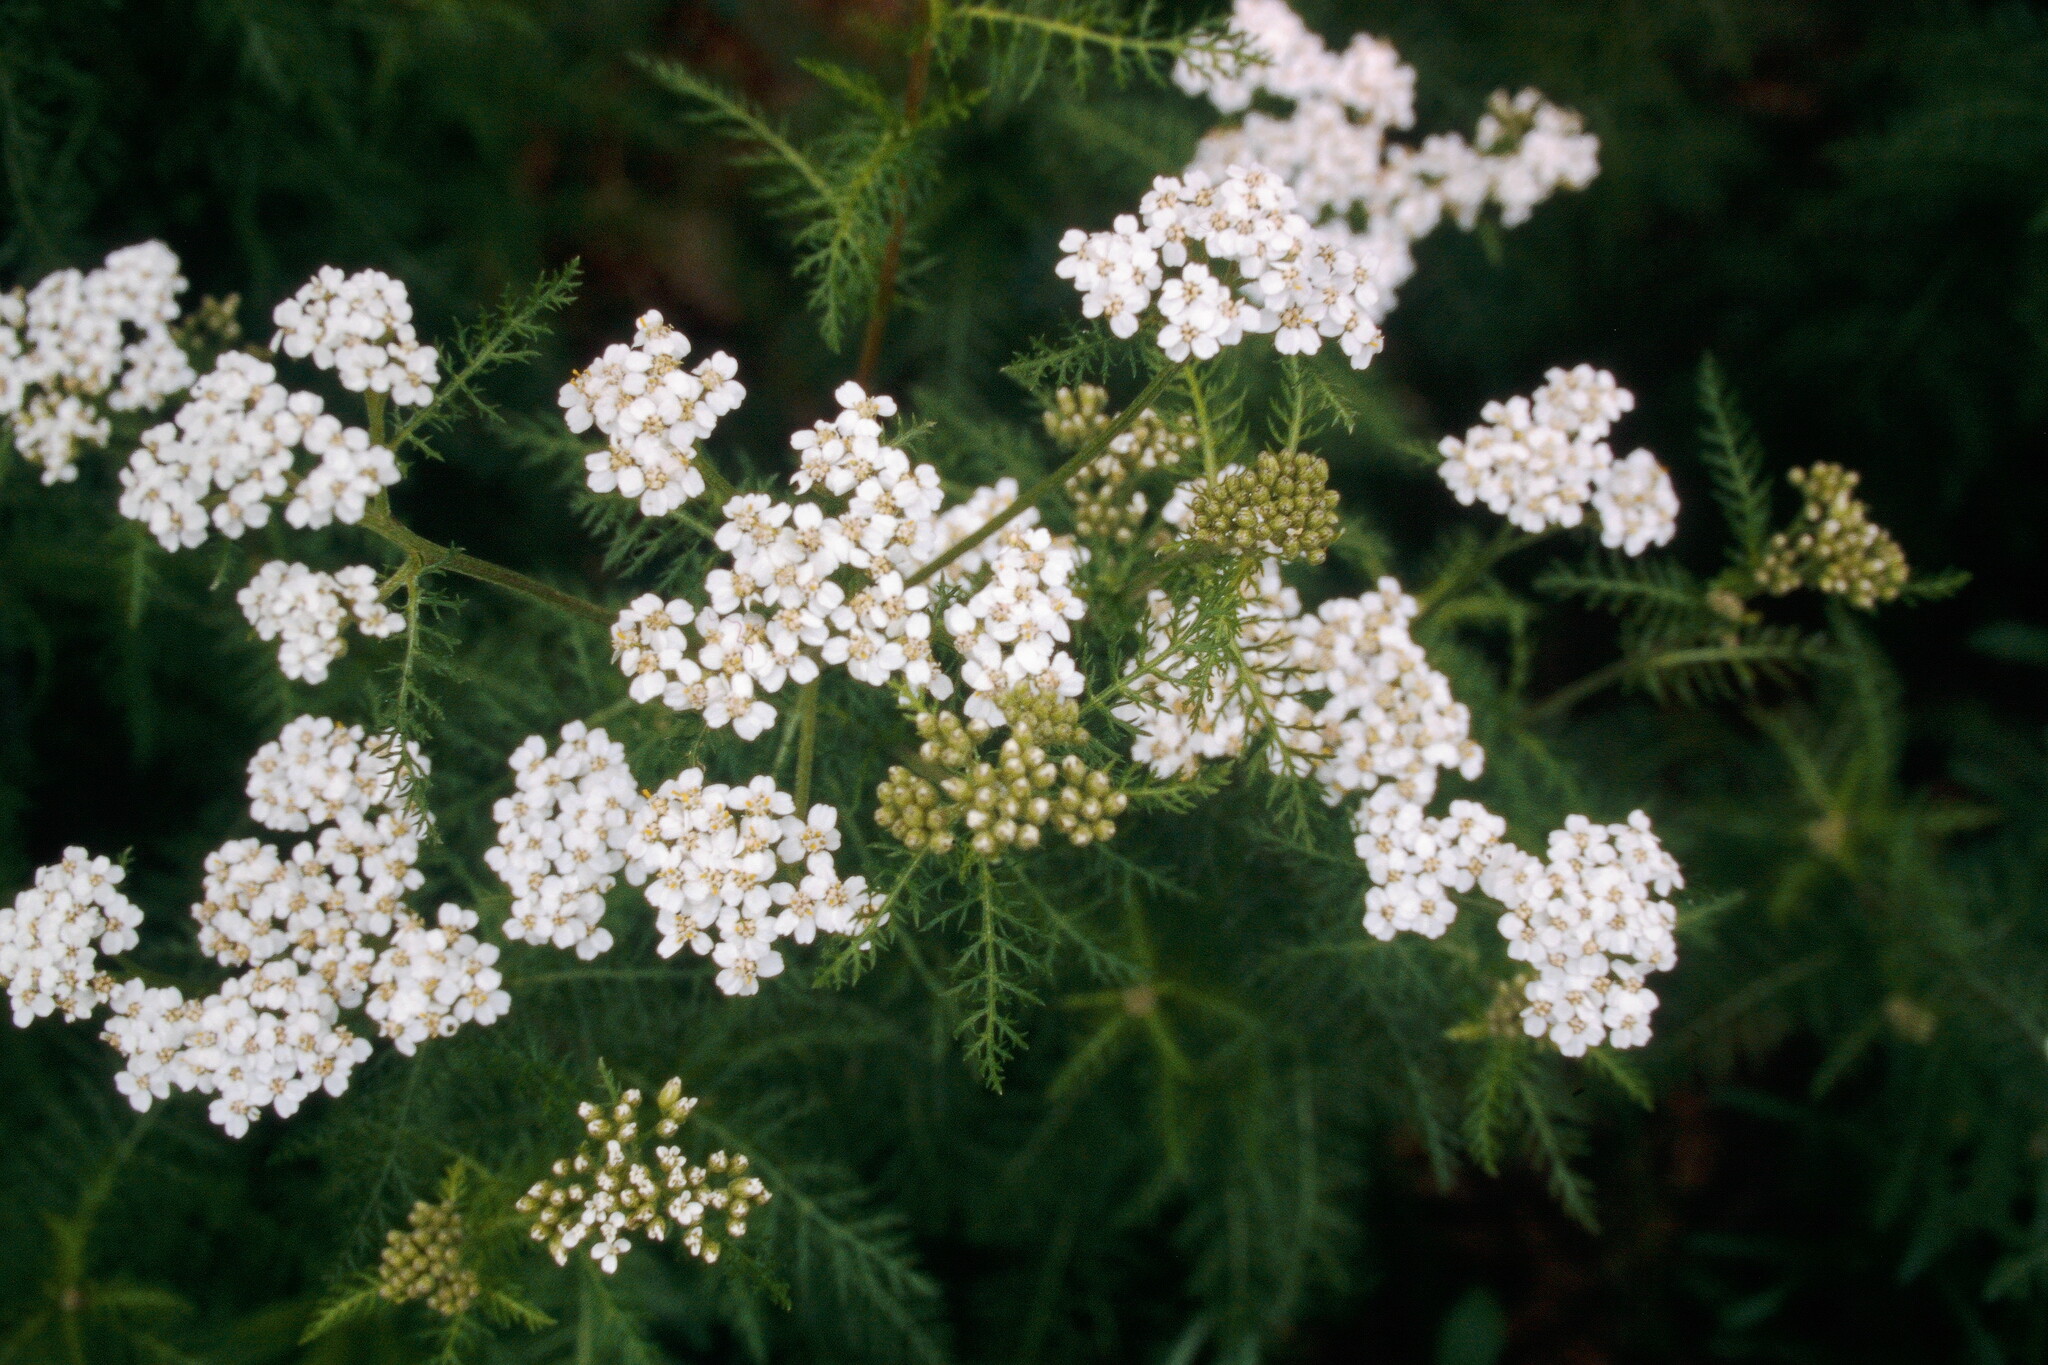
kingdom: Plantae
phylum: Tracheophyta
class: Magnoliopsida
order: Asterales
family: Asteraceae
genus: Achillea
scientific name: Achillea millefolium
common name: Yarrow
